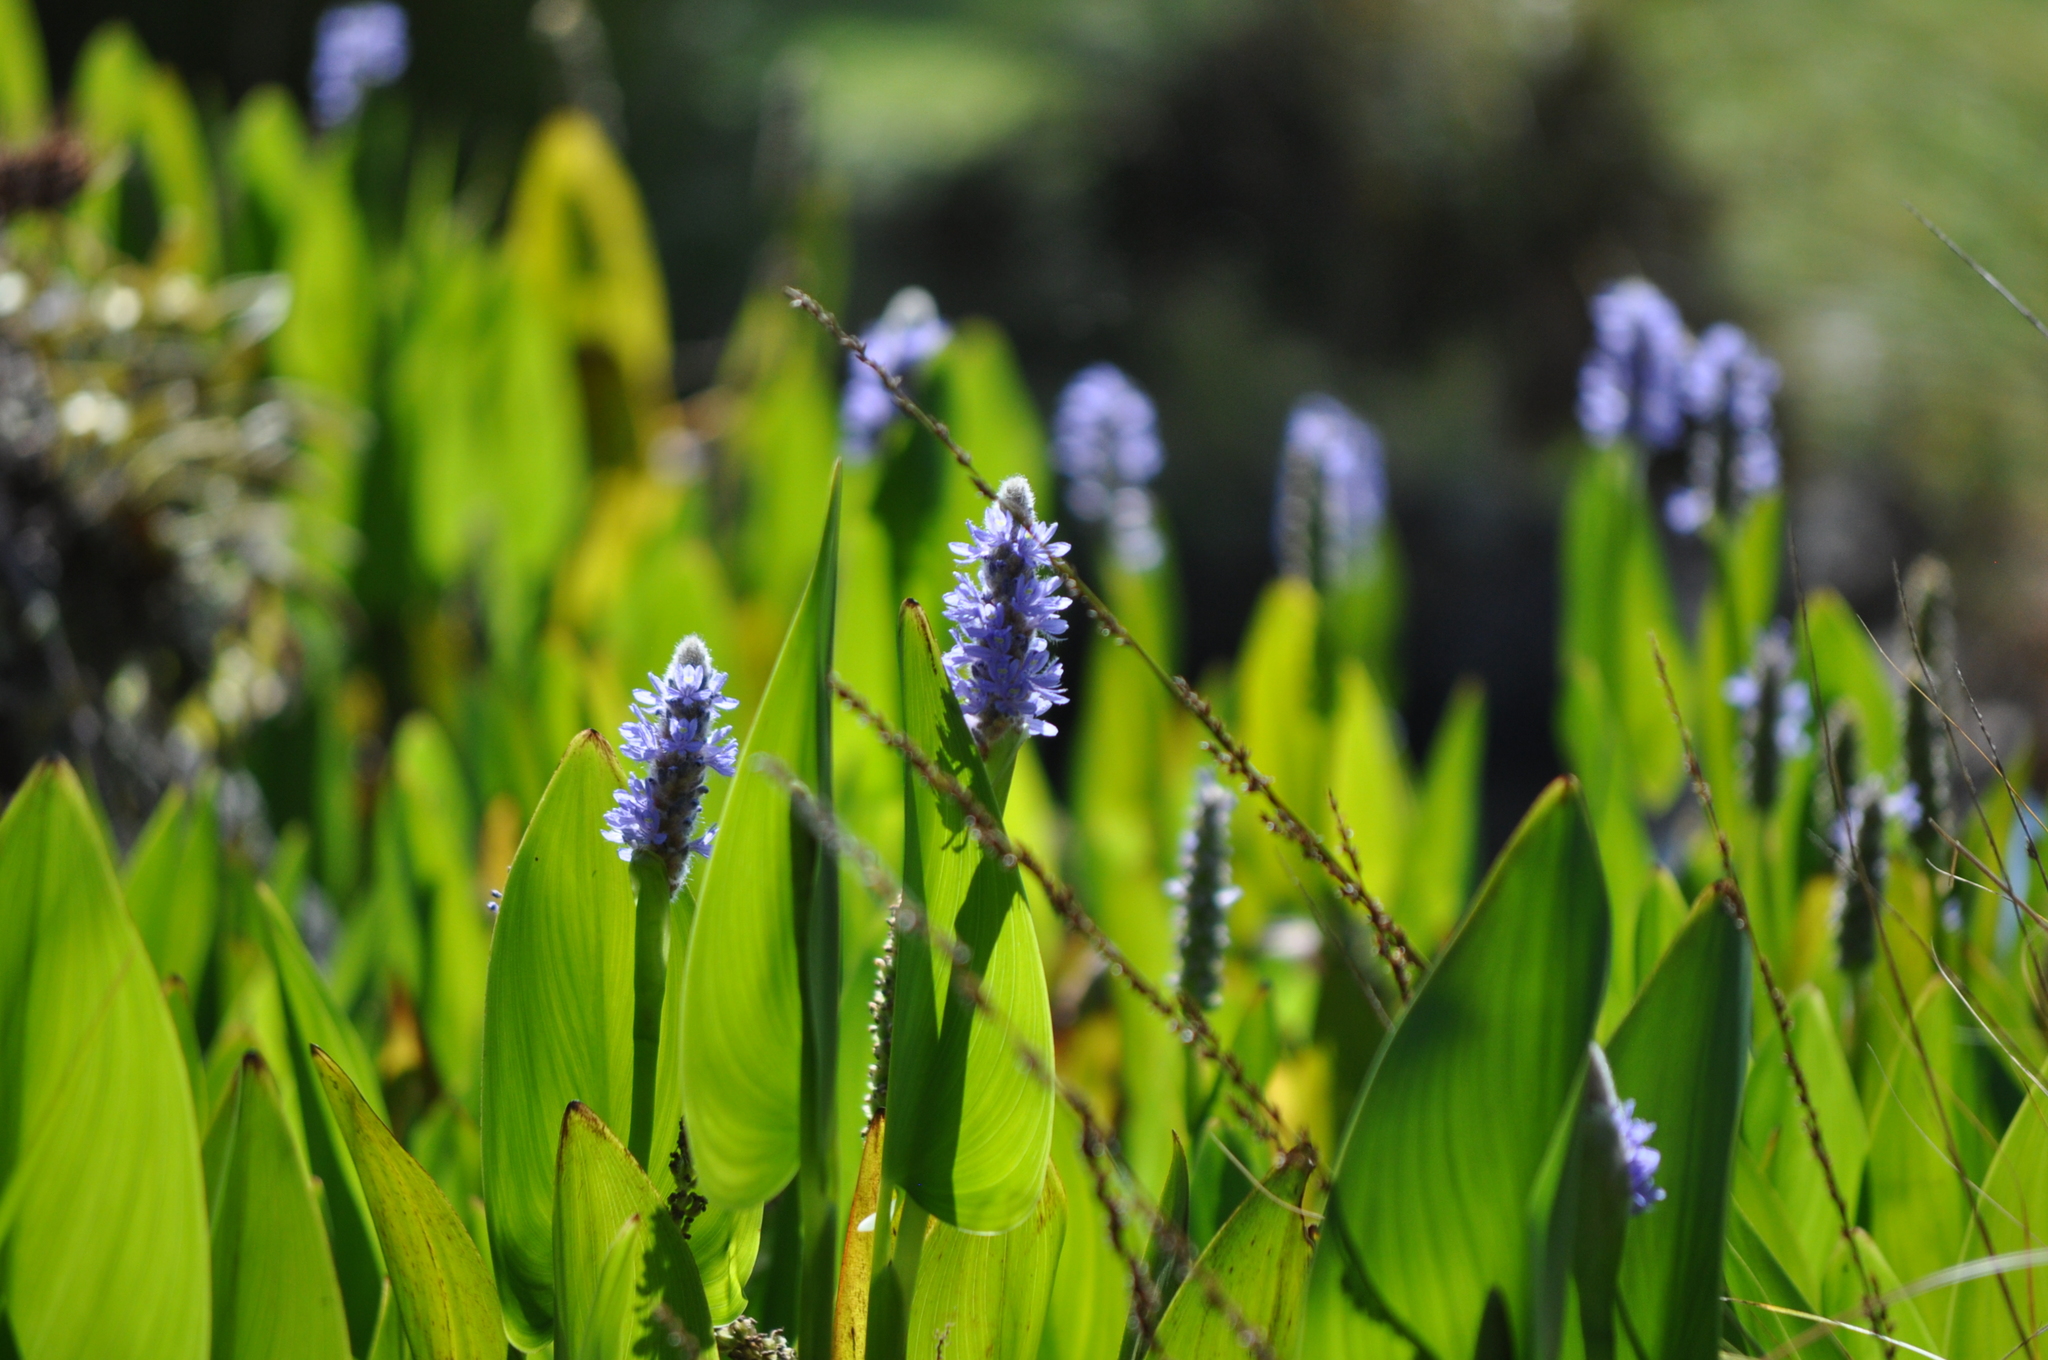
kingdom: Plantae
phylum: Tracheophyta
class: Liliopsida
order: Commelinales
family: Pontederiaceae
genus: Pontederia
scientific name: Pontederia cordata
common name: Pickerelweed
